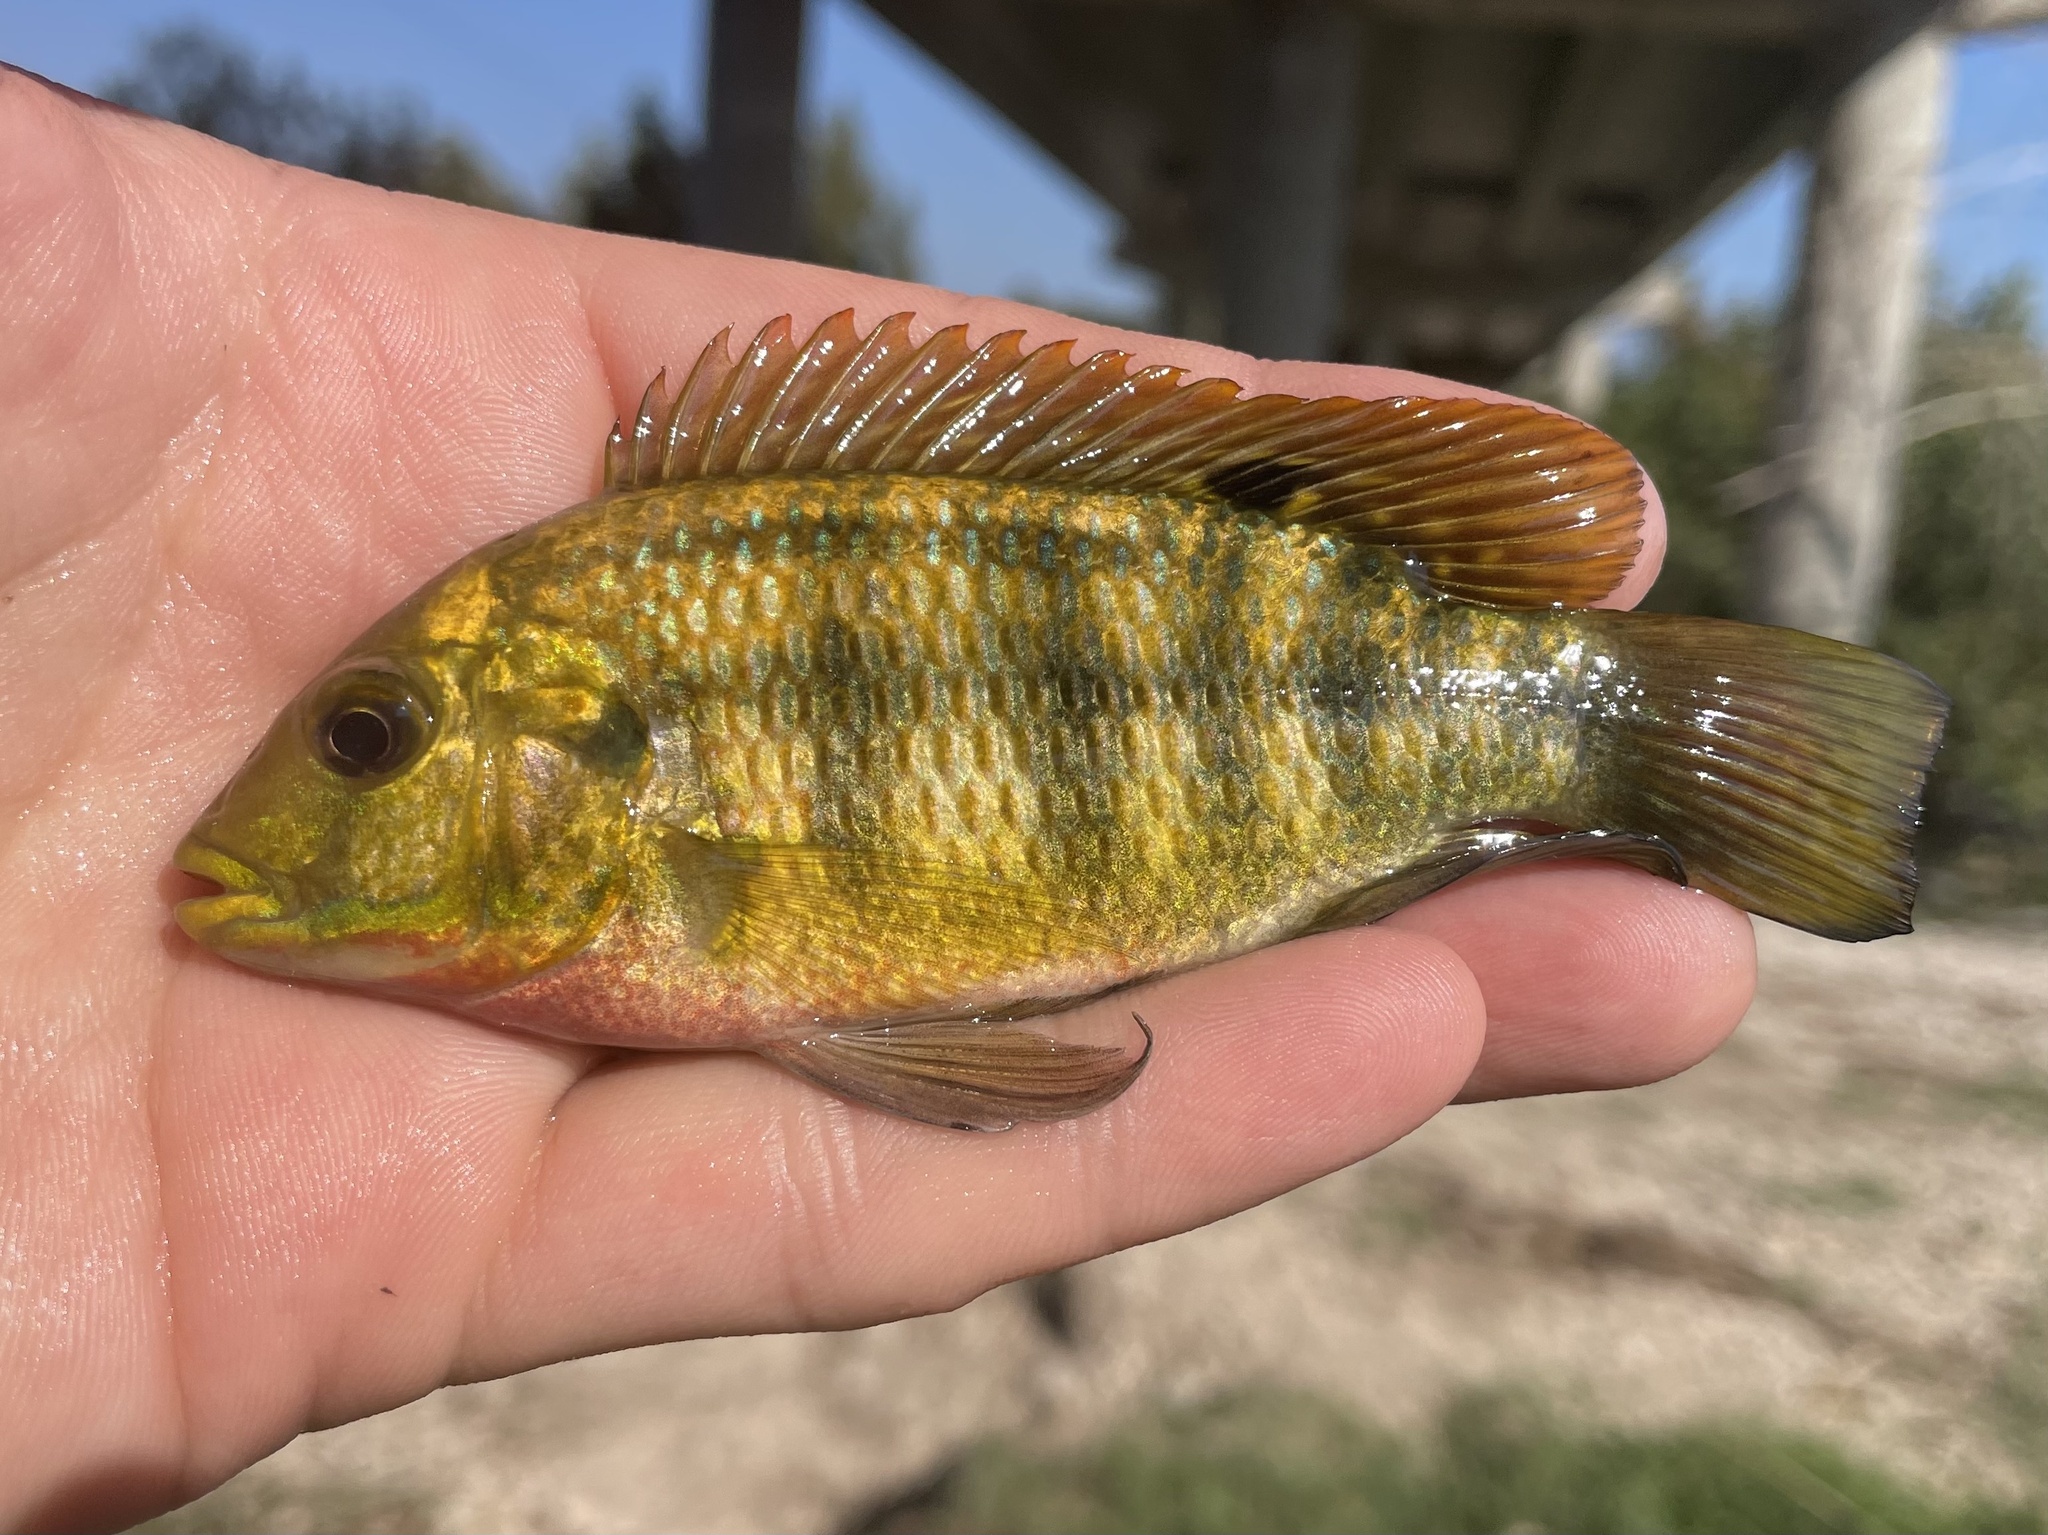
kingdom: Animalia
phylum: Chordata
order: Perciformes
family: Cichlidae
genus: Coptodon
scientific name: Coptodon zillii
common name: Redbelly tilapia
